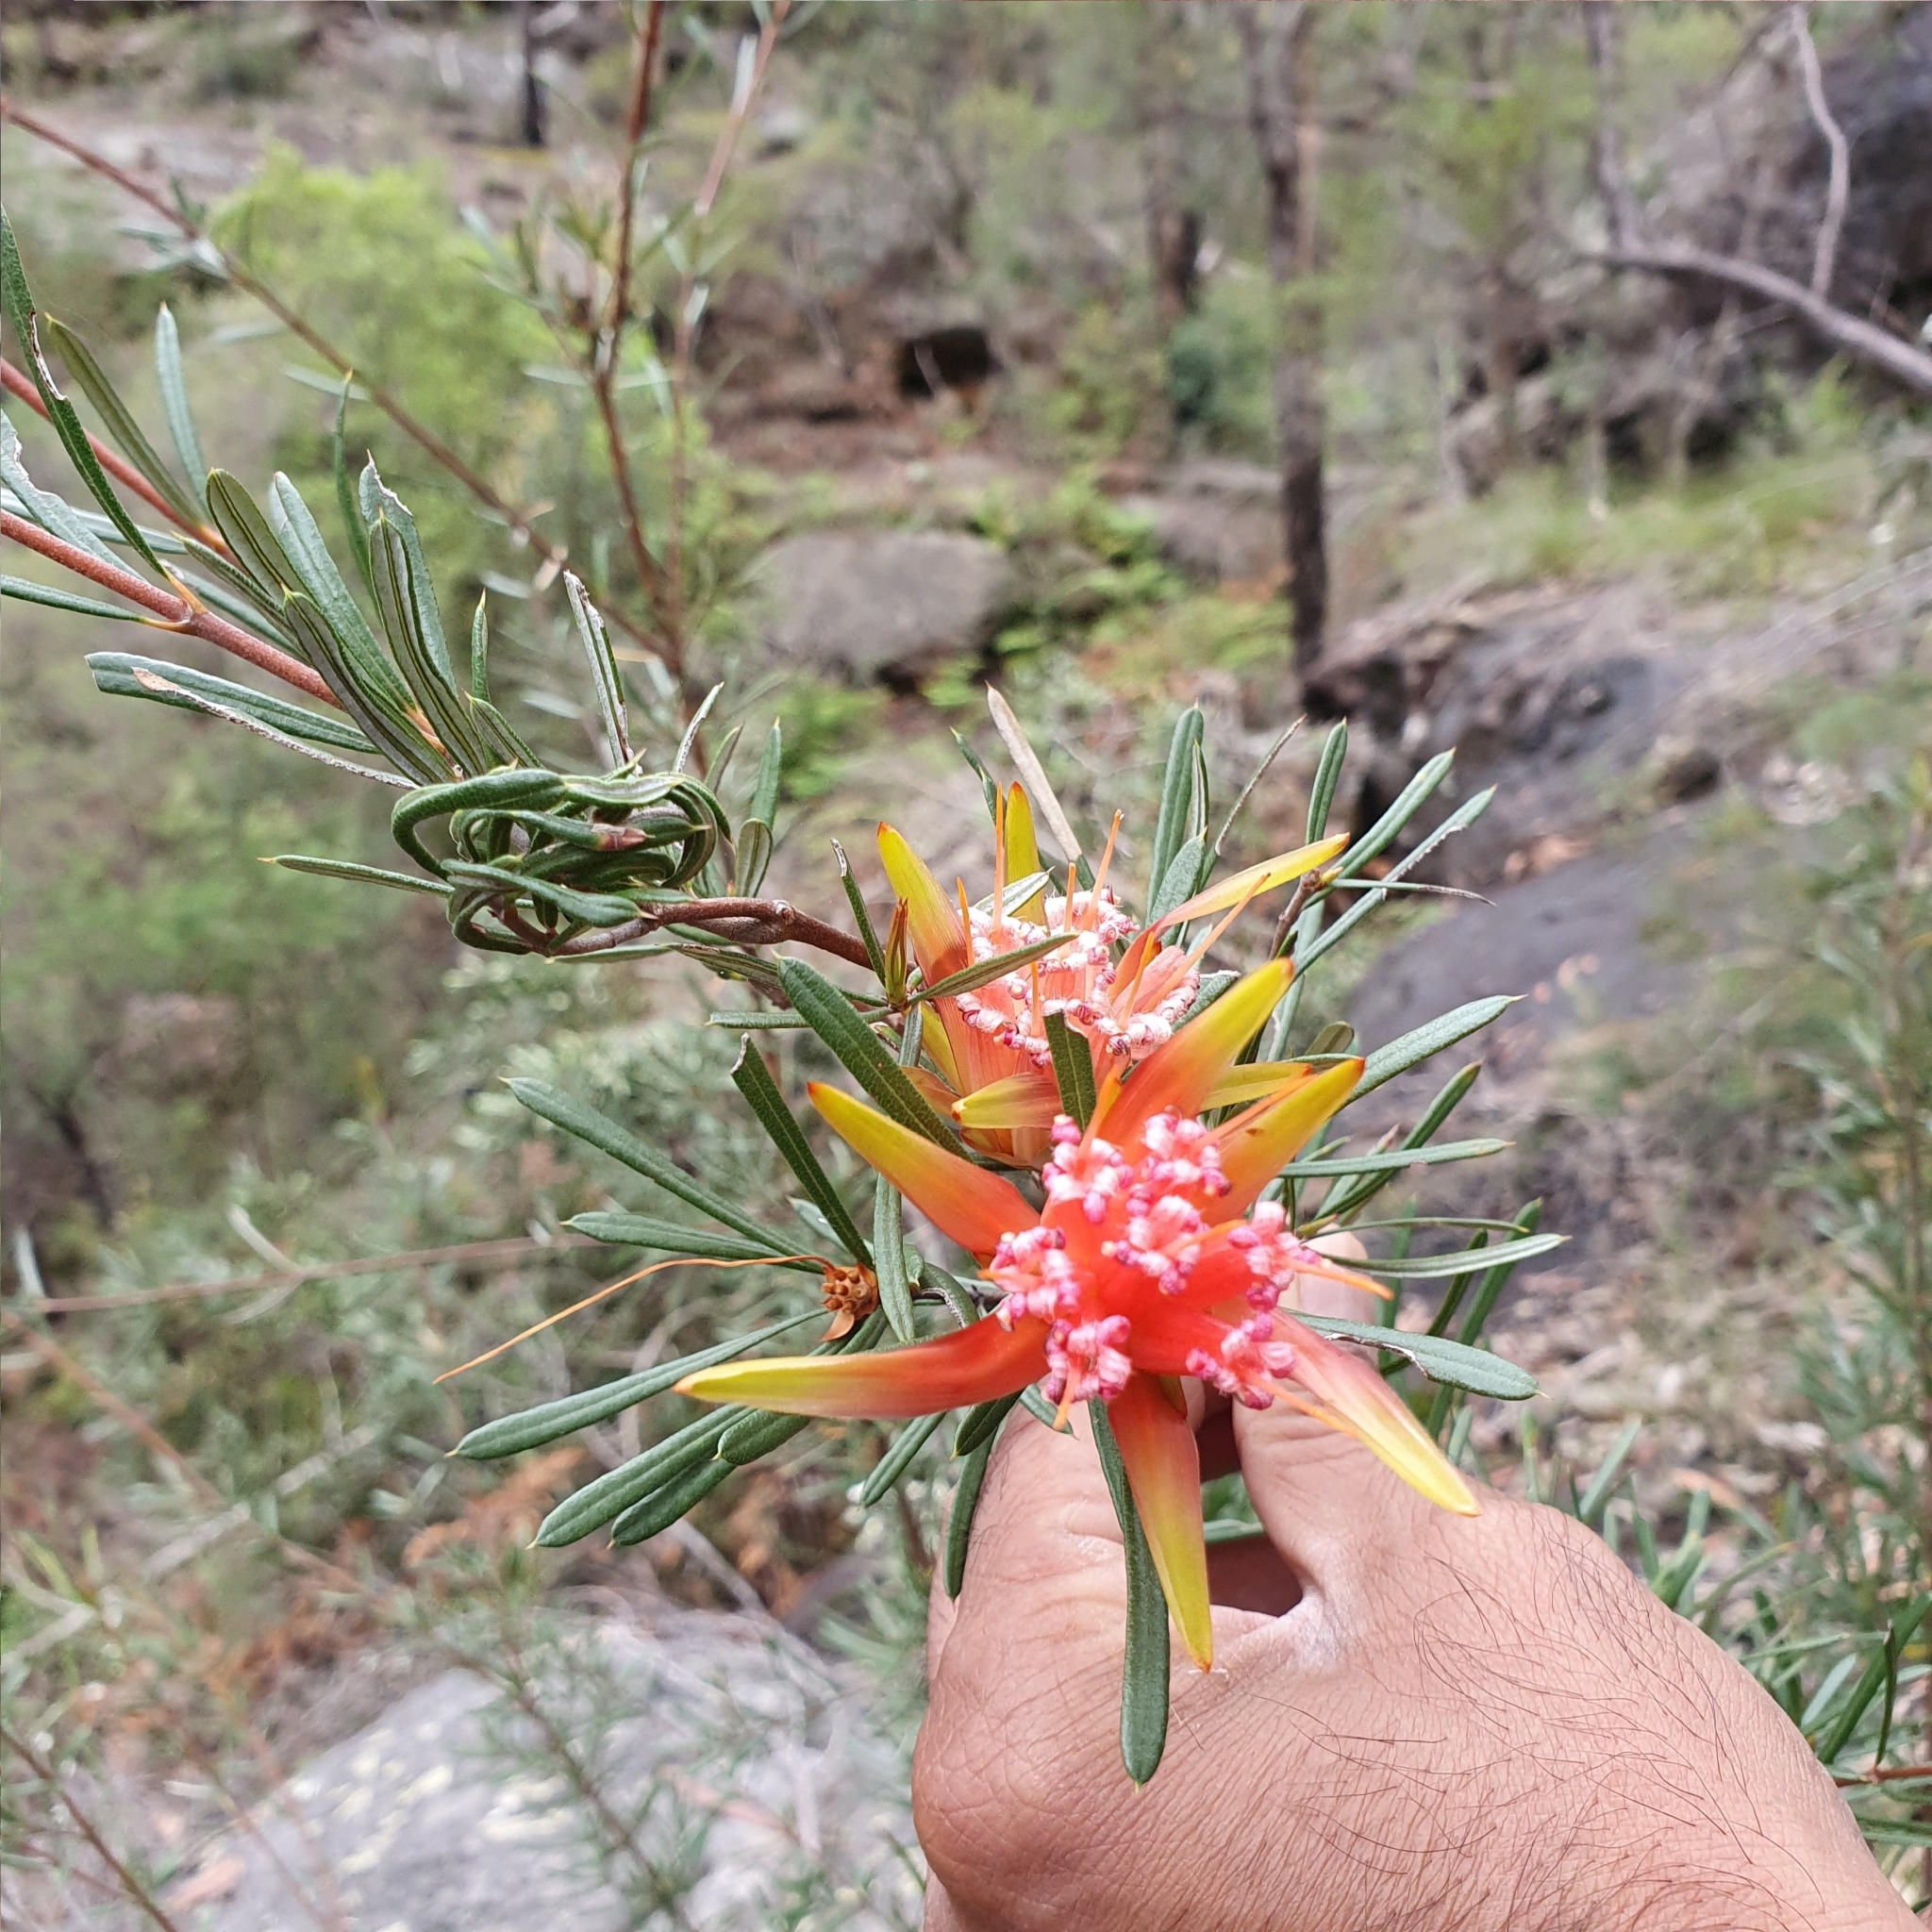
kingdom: Plantae
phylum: Tracheophyta
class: Magnoliopsida
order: Proteales
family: Proteaceae
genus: Lambertia
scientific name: Lambertia formosa
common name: Mountain-devil
